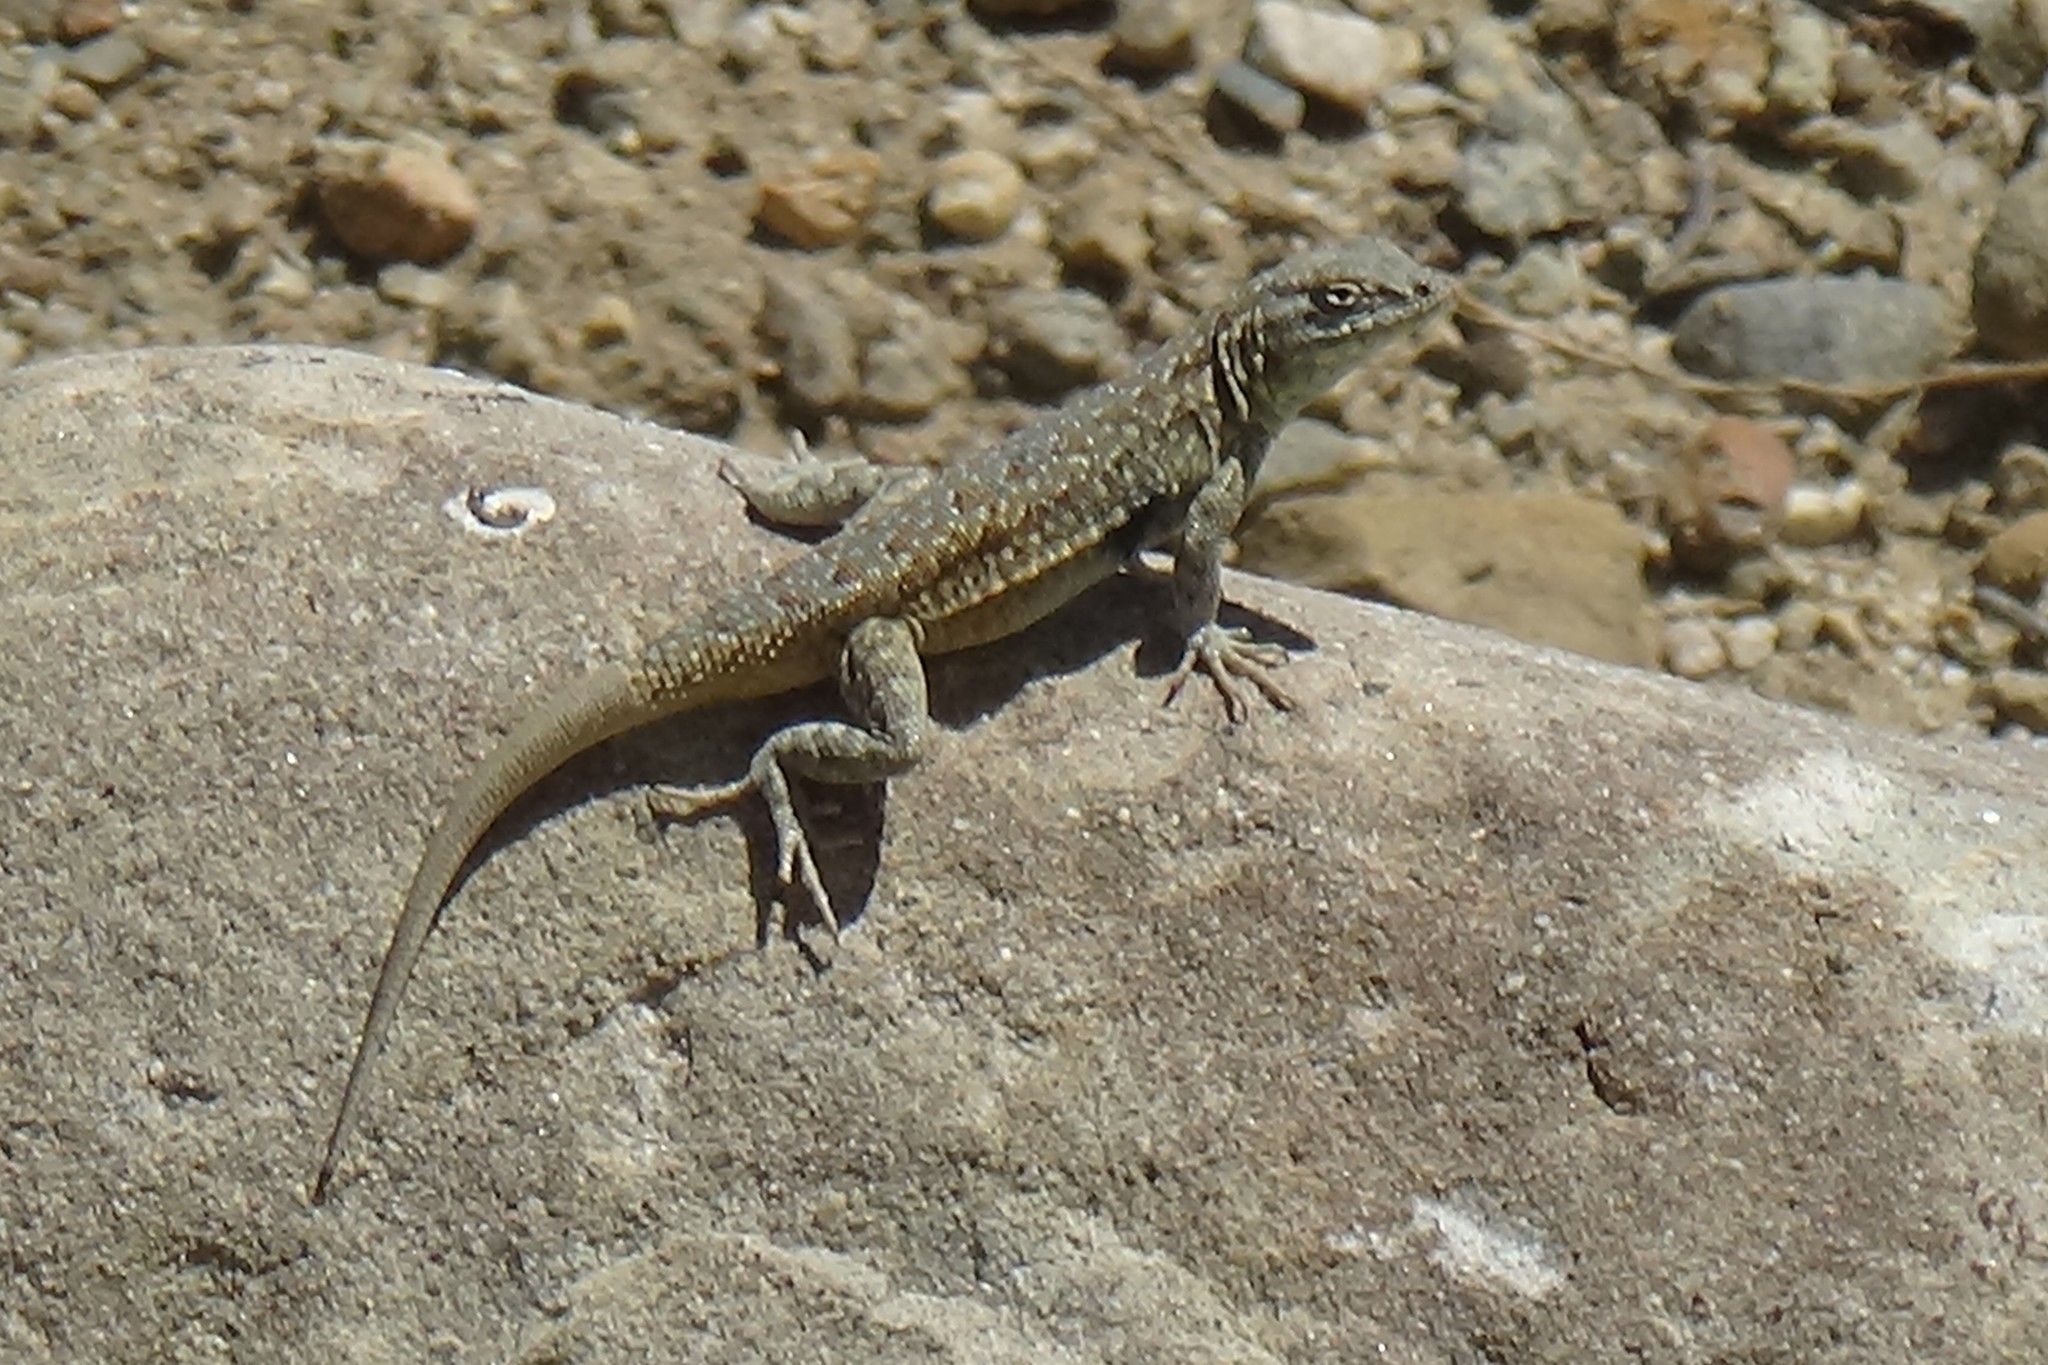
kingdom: Animalia
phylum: Chordata
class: Squamata
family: Phrynosomatidae
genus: Uta
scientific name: Uta stansburiana
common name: Side-blotched lizard
